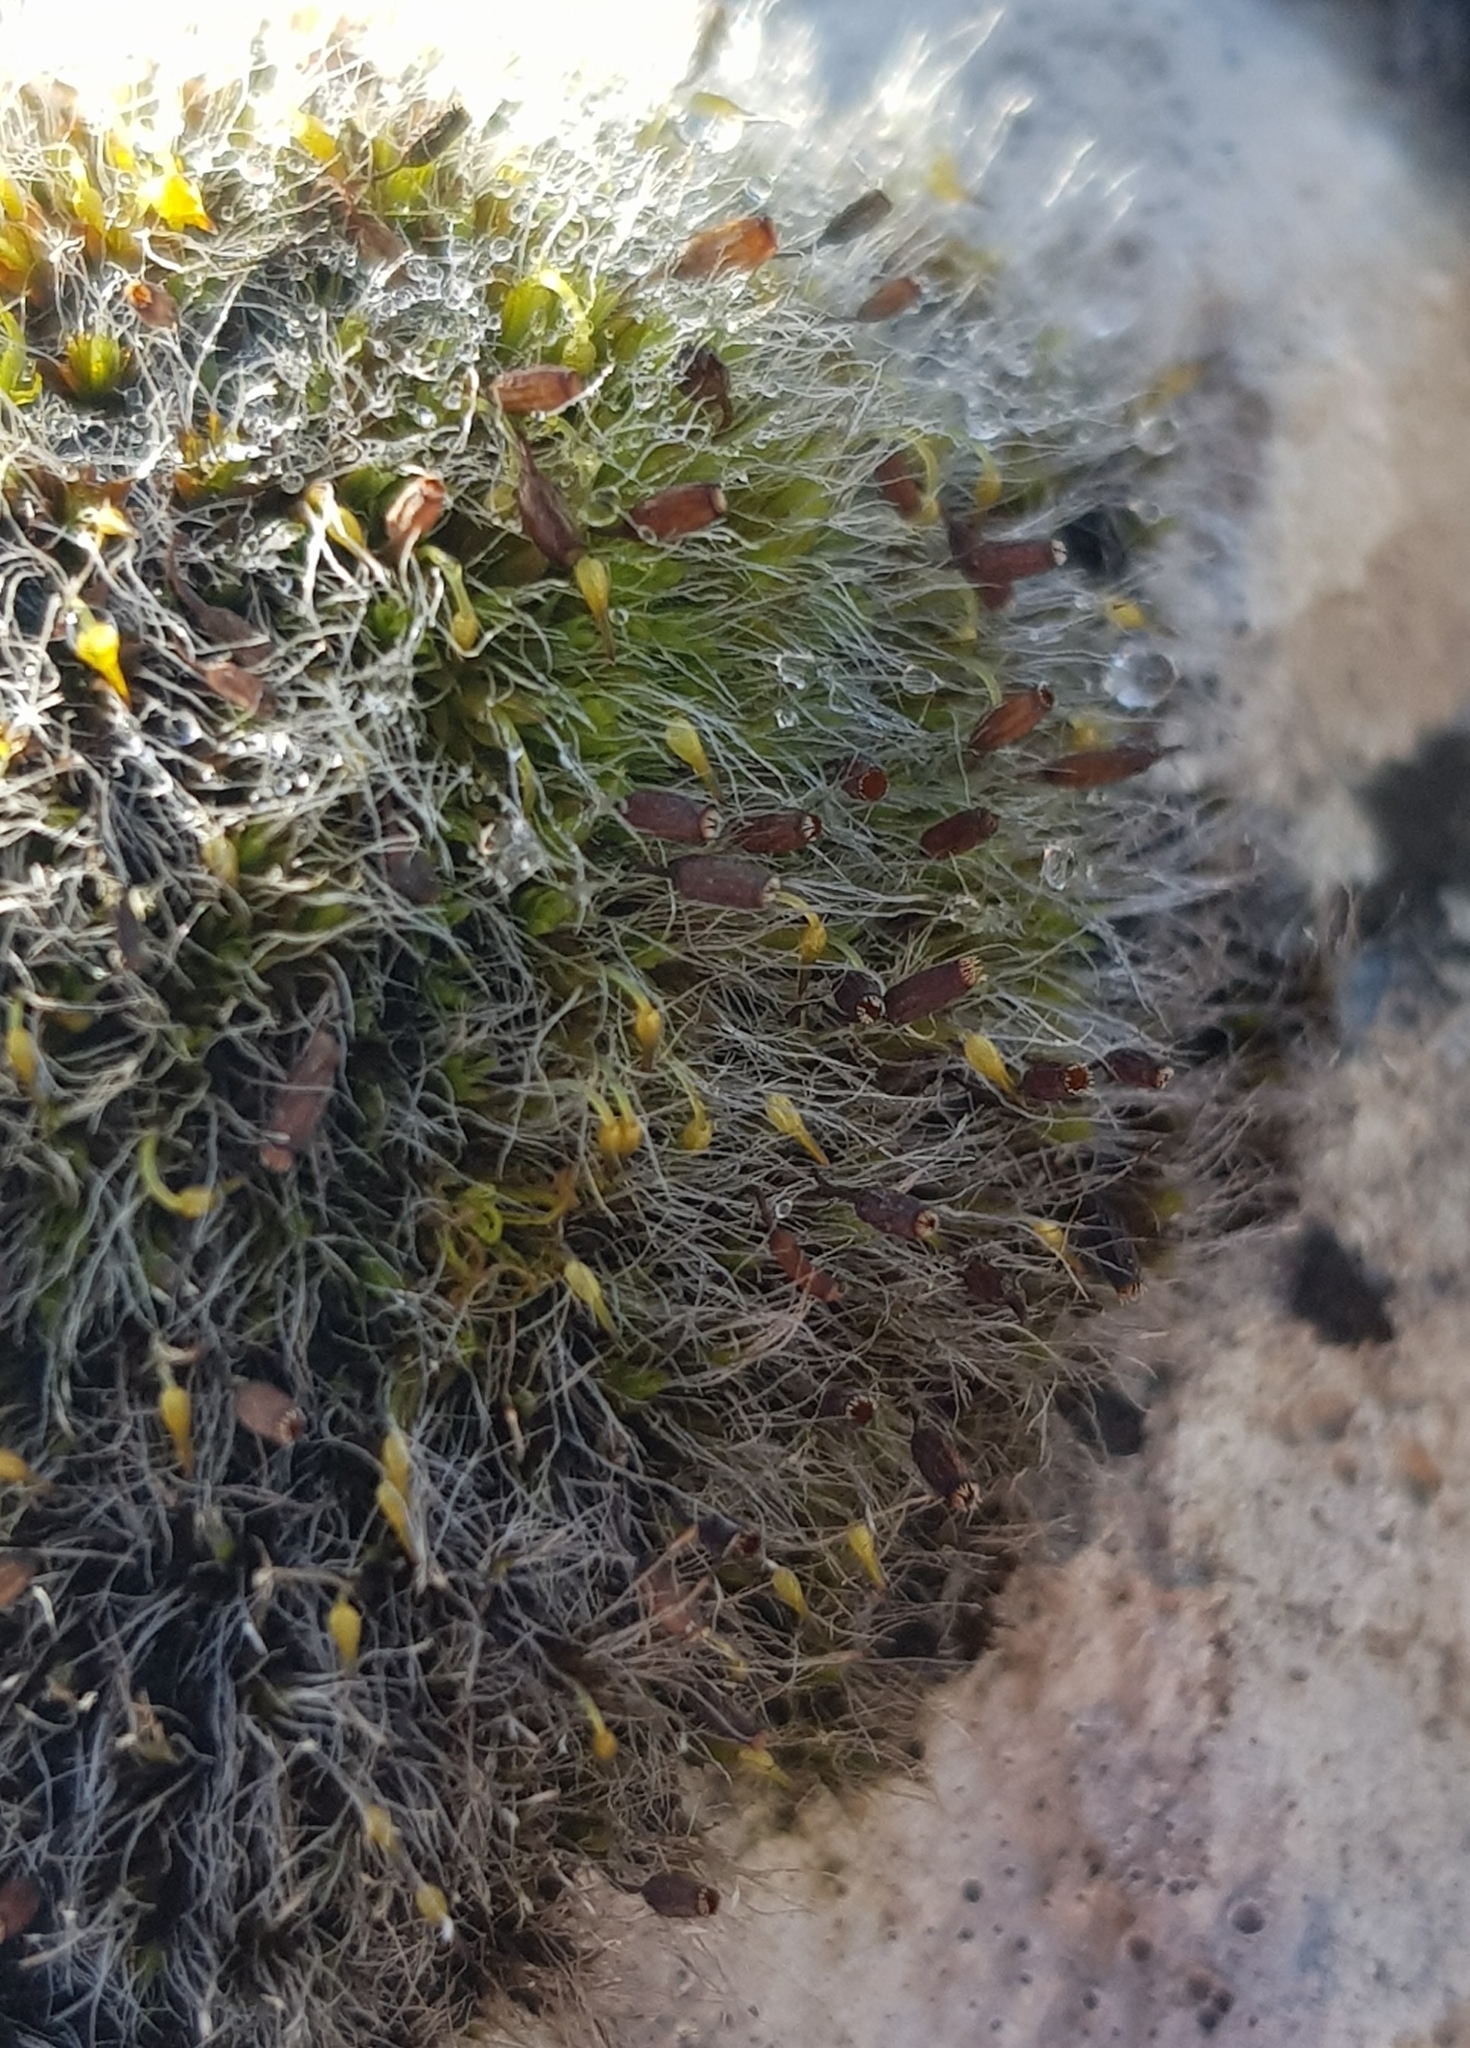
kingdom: Plantae
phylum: Bryophyta
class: Bryopsida
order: Grimmiales
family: Grimmiaceae
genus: Grimmia
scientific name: Grimmia pulvinata
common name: Grey-cushioned grimmia
